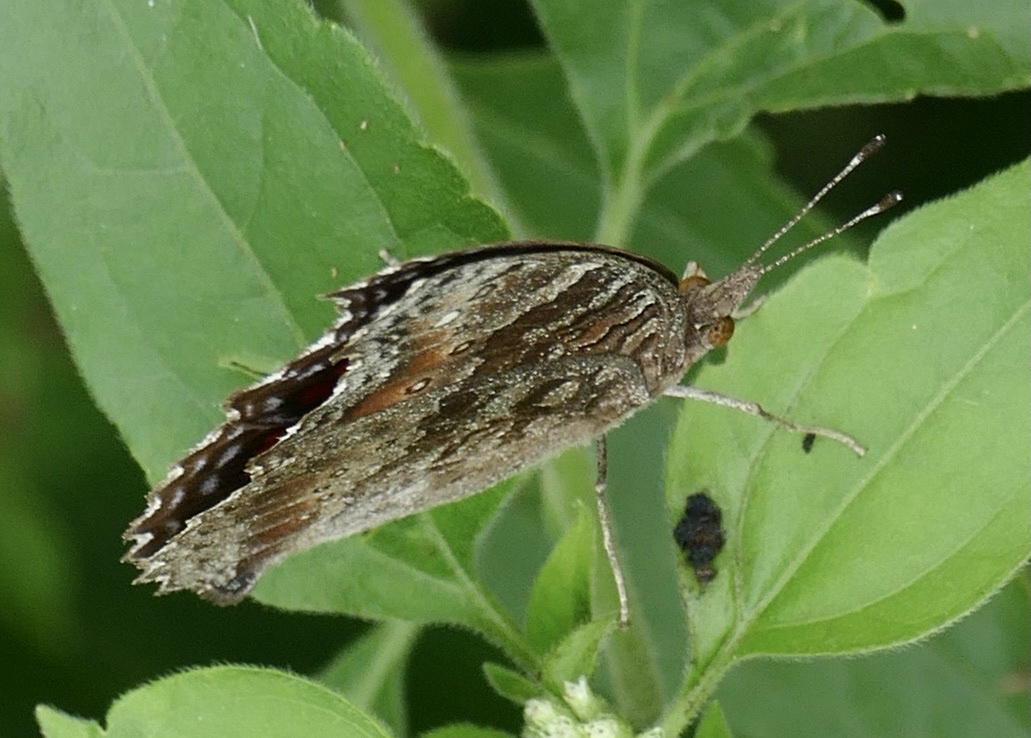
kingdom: Animalia
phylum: Arthropoda
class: Insecta
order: Lepidoptera
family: Nymphalidae
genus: Precis
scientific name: Precis octavia
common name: Gaudy commodore
